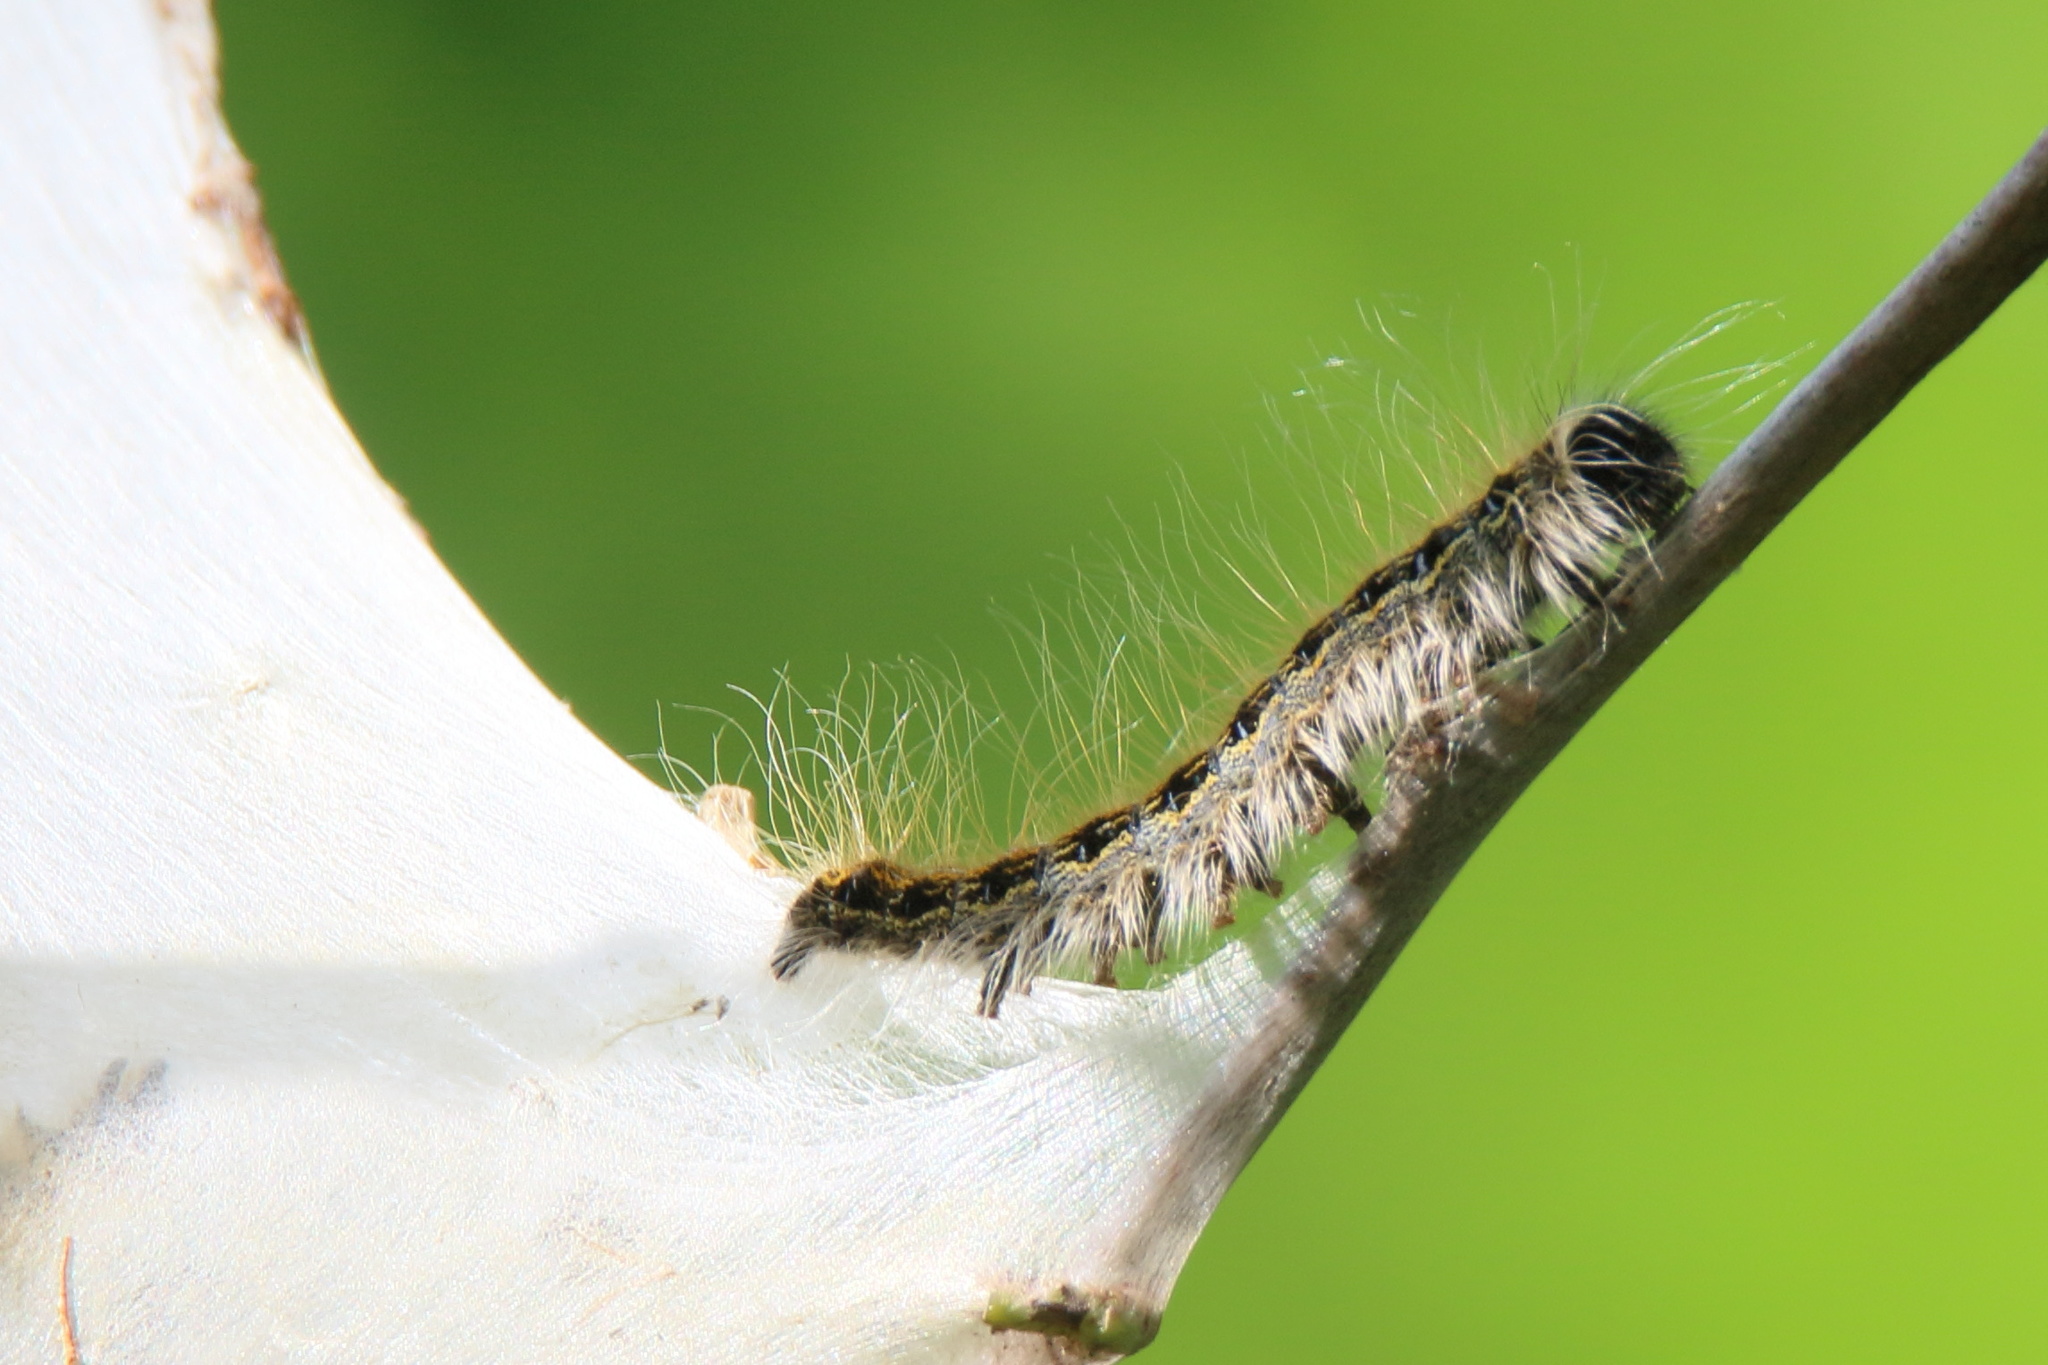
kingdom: Animalia
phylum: Arthropoda
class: Insecta
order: Lepidoptera
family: Lasiocampidae
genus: Malacosoma
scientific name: Malacosoma americana
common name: Eastern tent caterpillar moth
